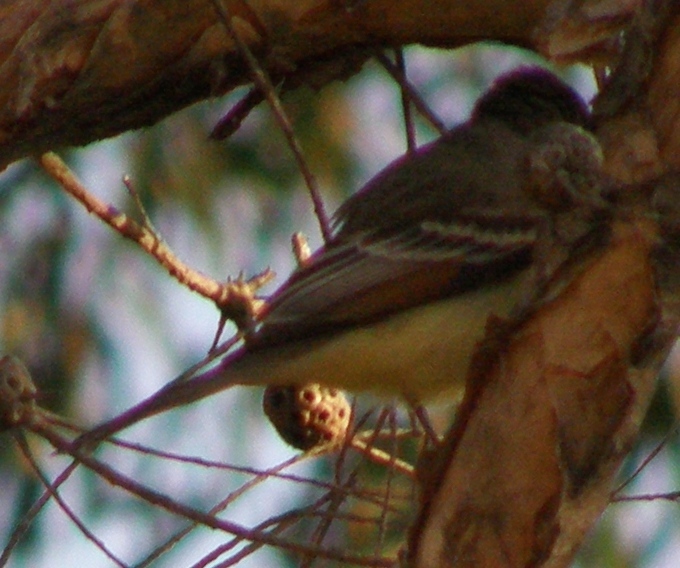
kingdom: Animalia
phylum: Chordata
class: Aves
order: Passeriformes
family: Tyrannidae
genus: Myiarchus
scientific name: Myiarchus cinerascens
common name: Ash-throated flycatcher
